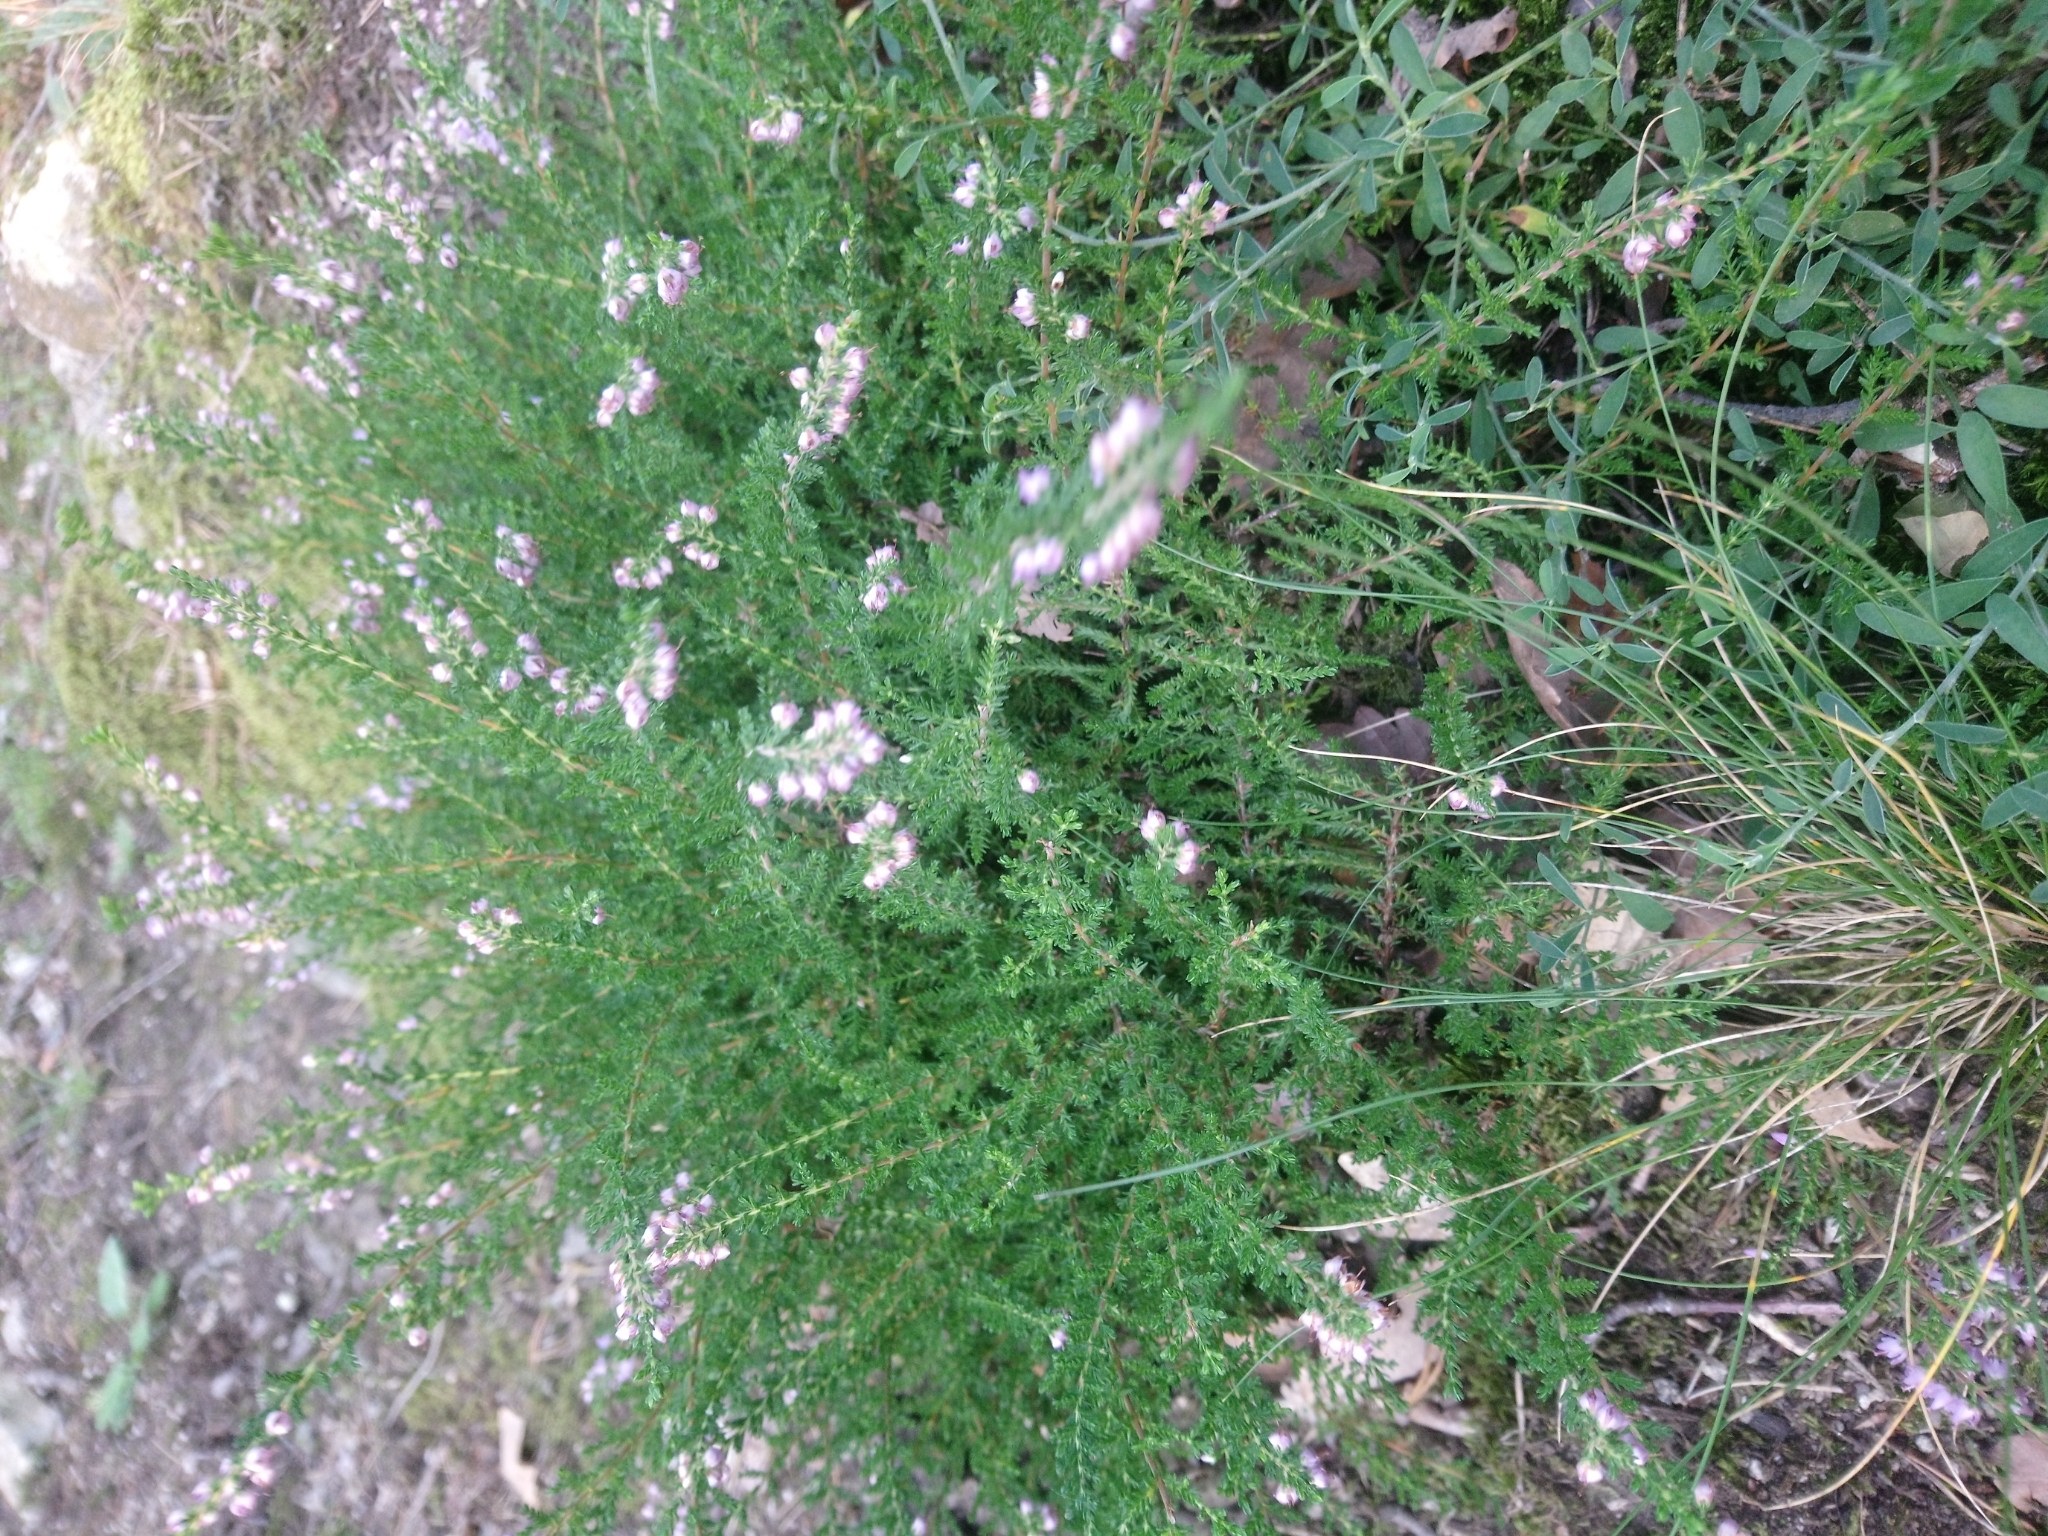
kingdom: Plantae
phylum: Tracheophyta
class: Magnoliopsida
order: Ericales
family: Ericaceae
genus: Calluna
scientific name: Calluna vulgaris
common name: Heather
